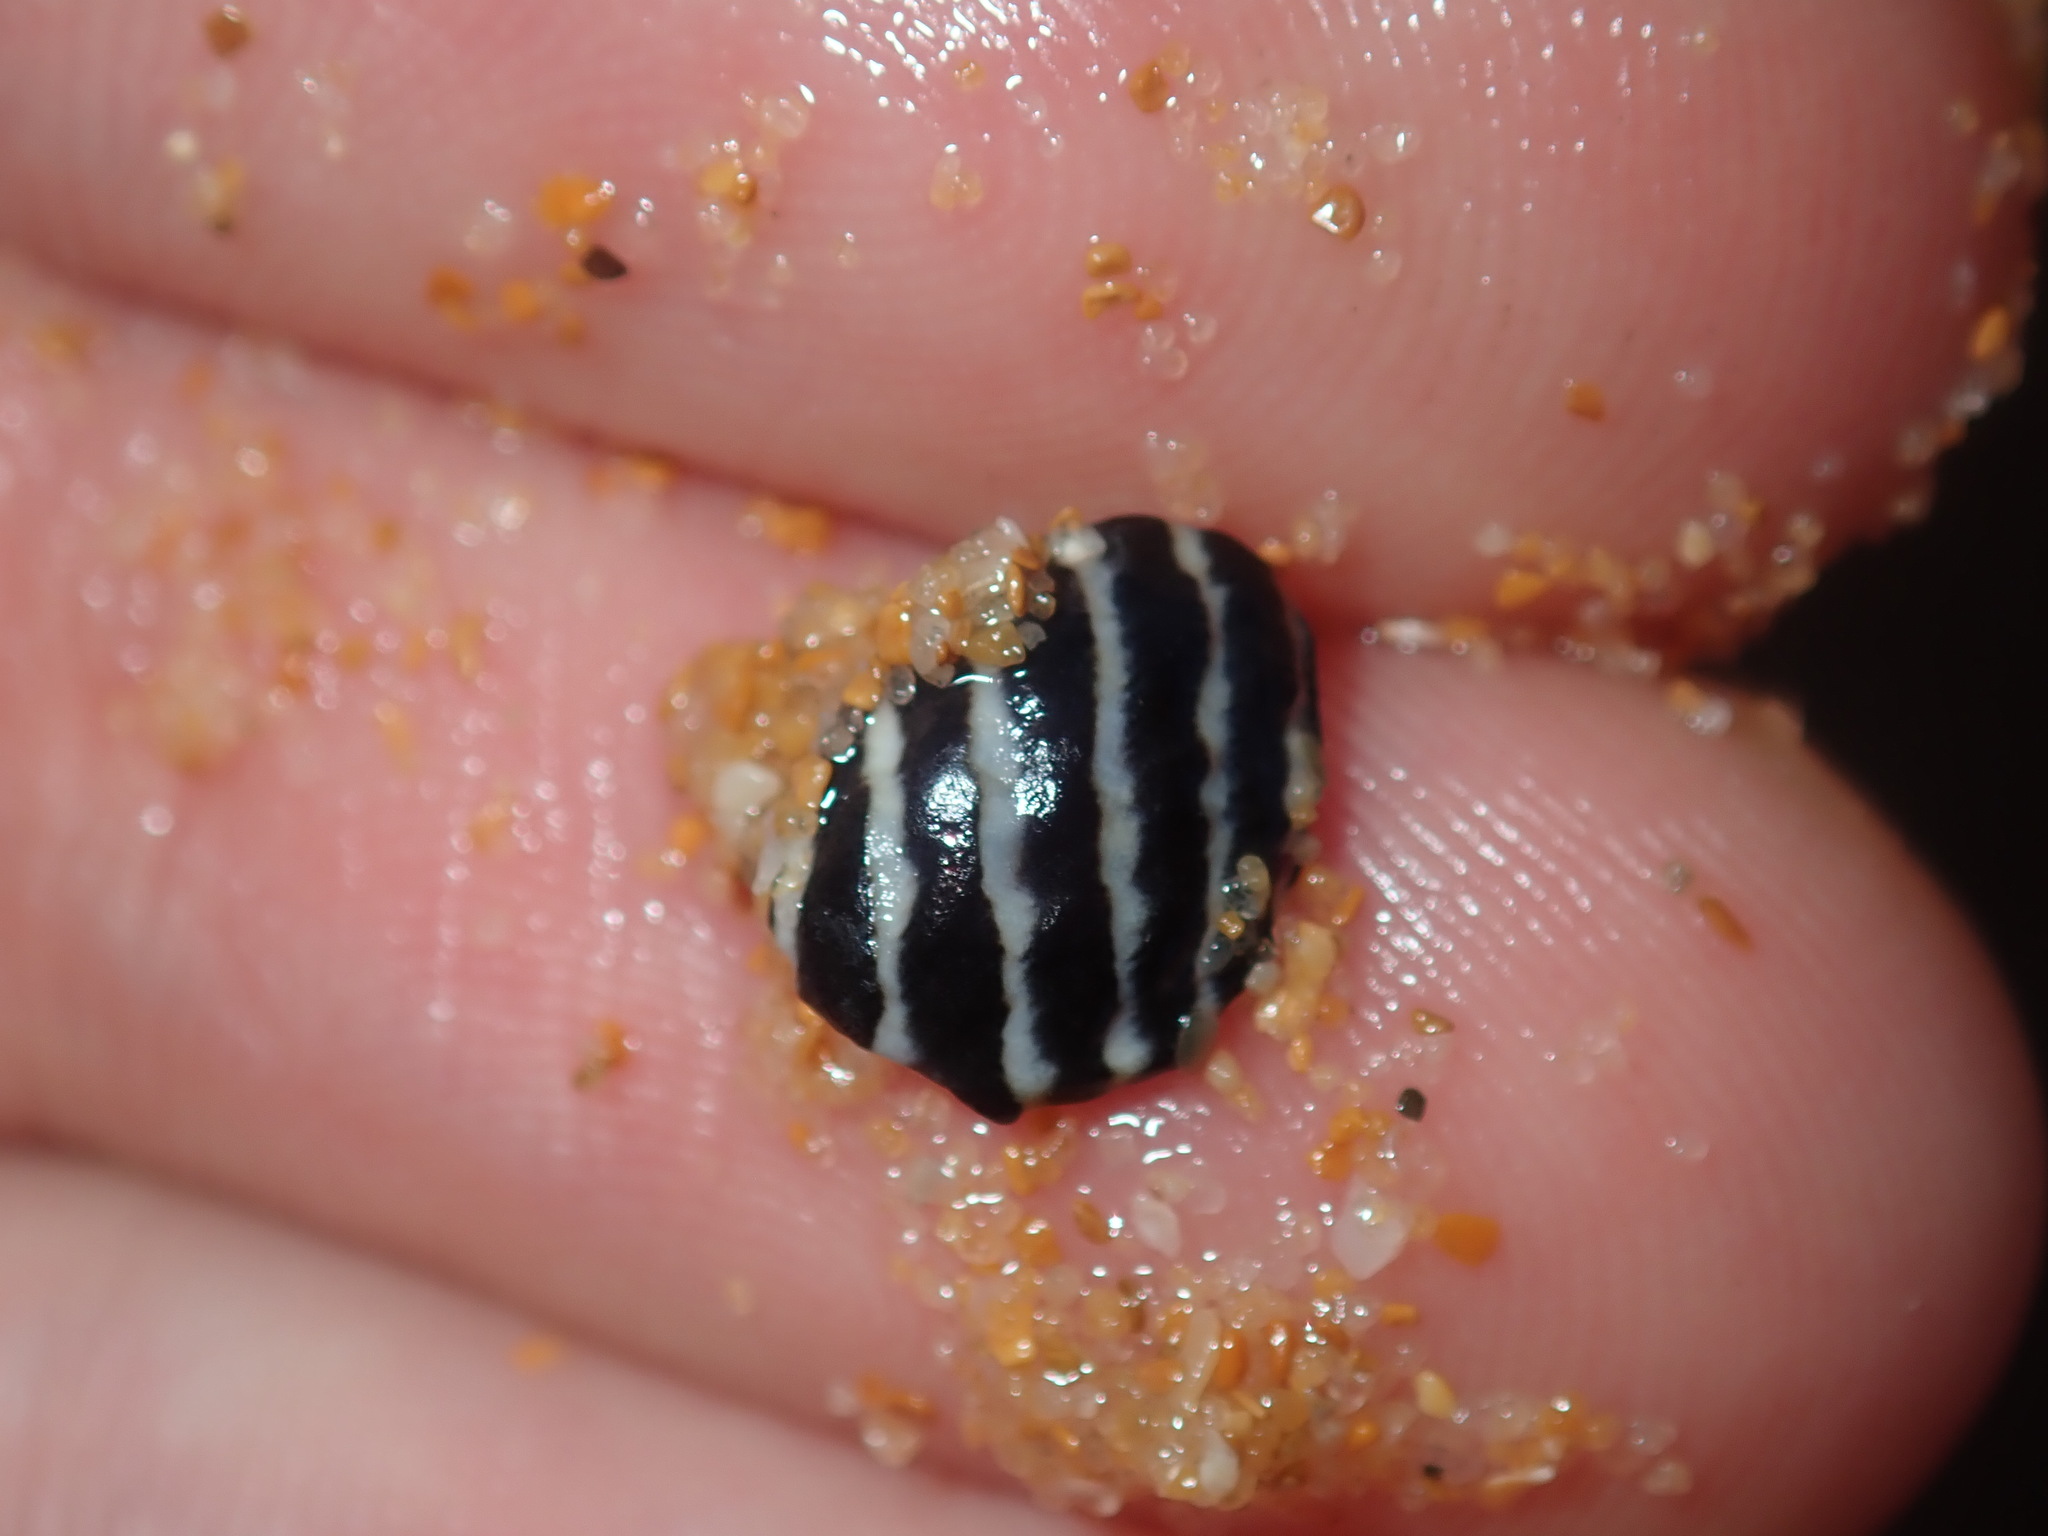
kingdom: Animalia
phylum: Mollusca
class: Gastropoda
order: Trochida
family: Trochidae
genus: Austrocochlea
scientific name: Austrocochlea porcata
